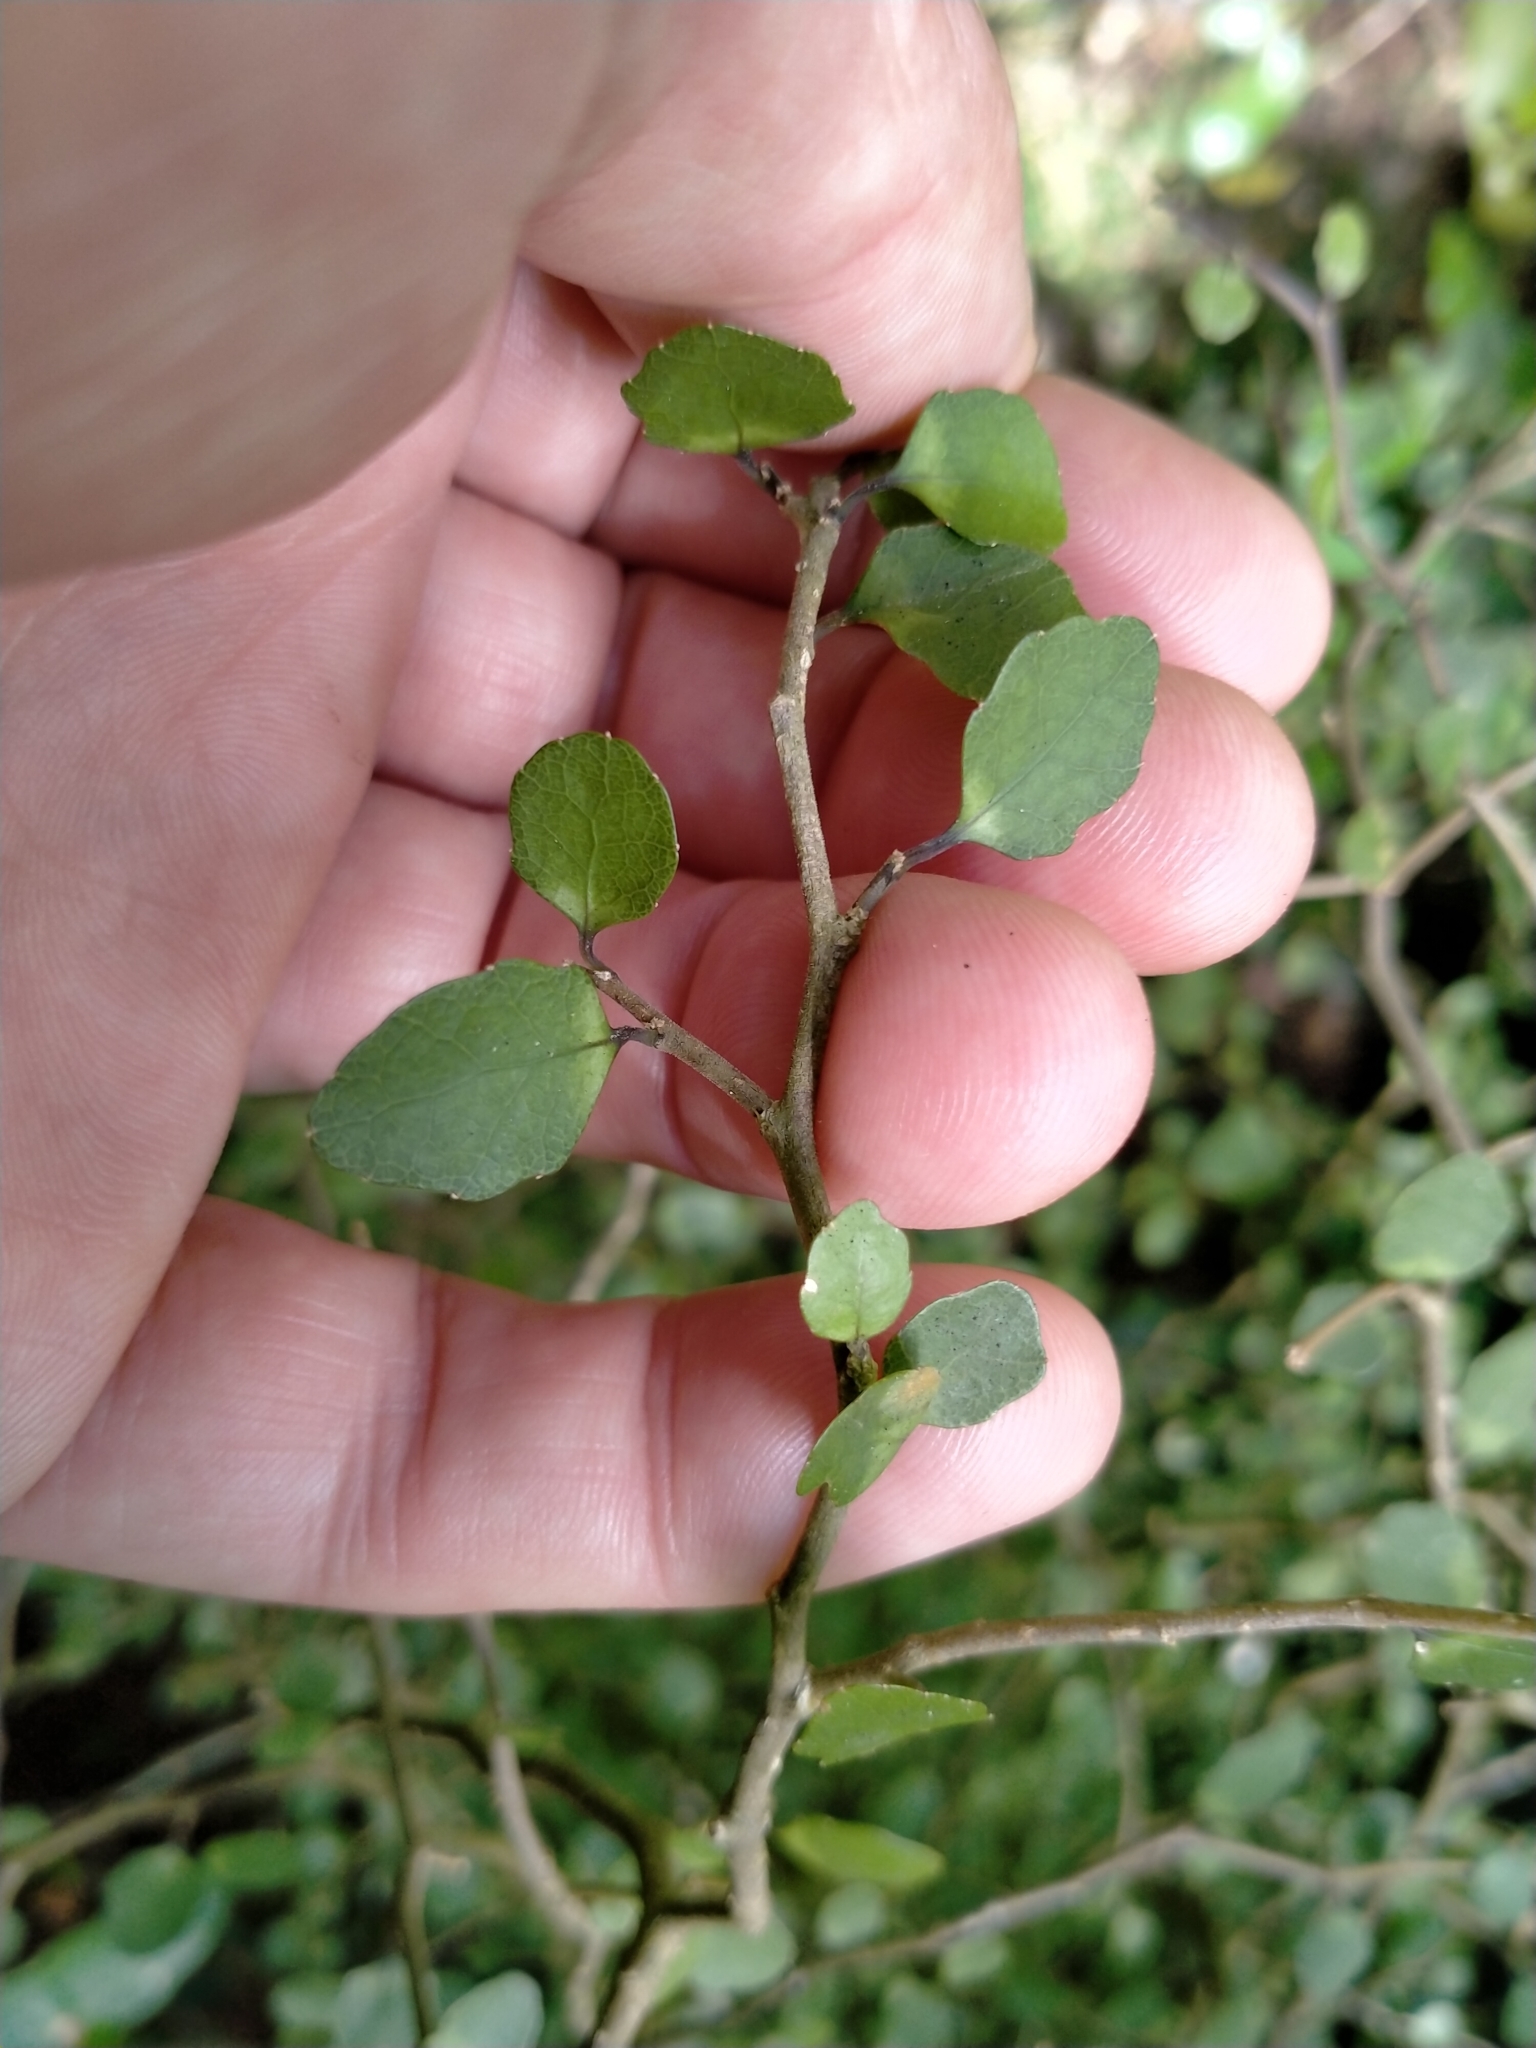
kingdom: Plantae
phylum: Tracheophyta
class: Magnoliopsida
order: Malpighiales
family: Violaceae
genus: Melicytus
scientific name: Melicytus micranthus
